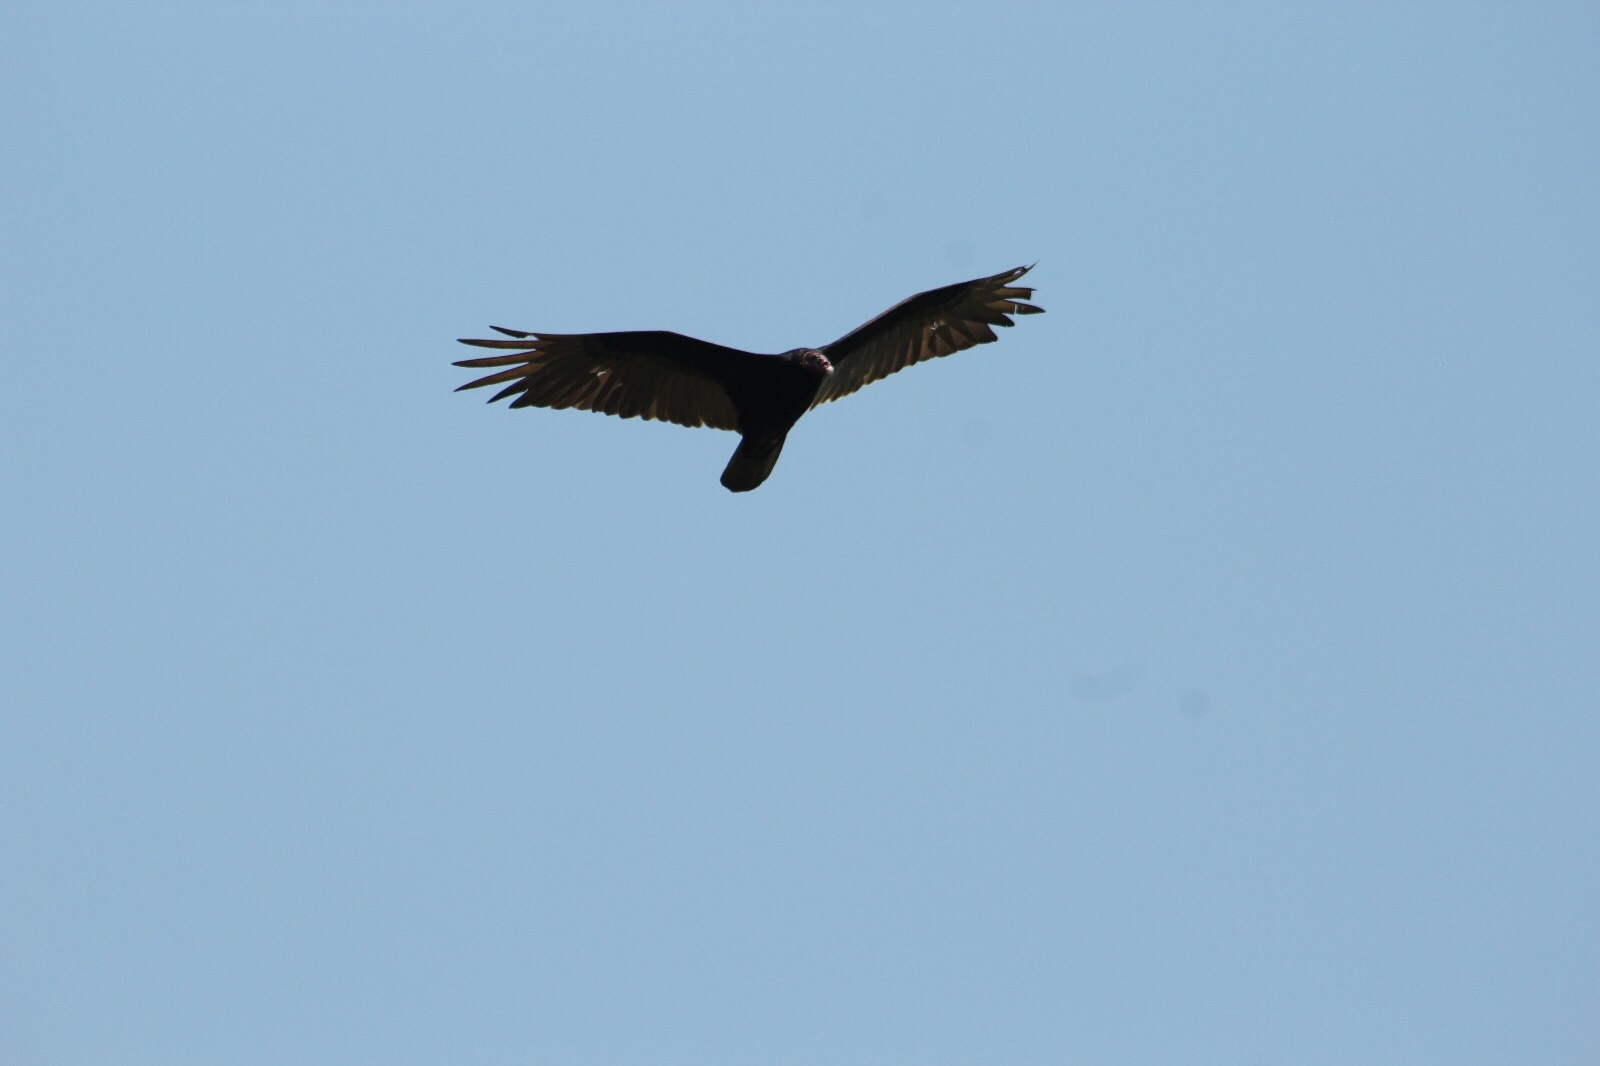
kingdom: Animalia
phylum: Chordata
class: Aves
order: Accipitriformes
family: Cathartidae
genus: Cathartes
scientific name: Cathartes aura
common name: Turkey vulture
